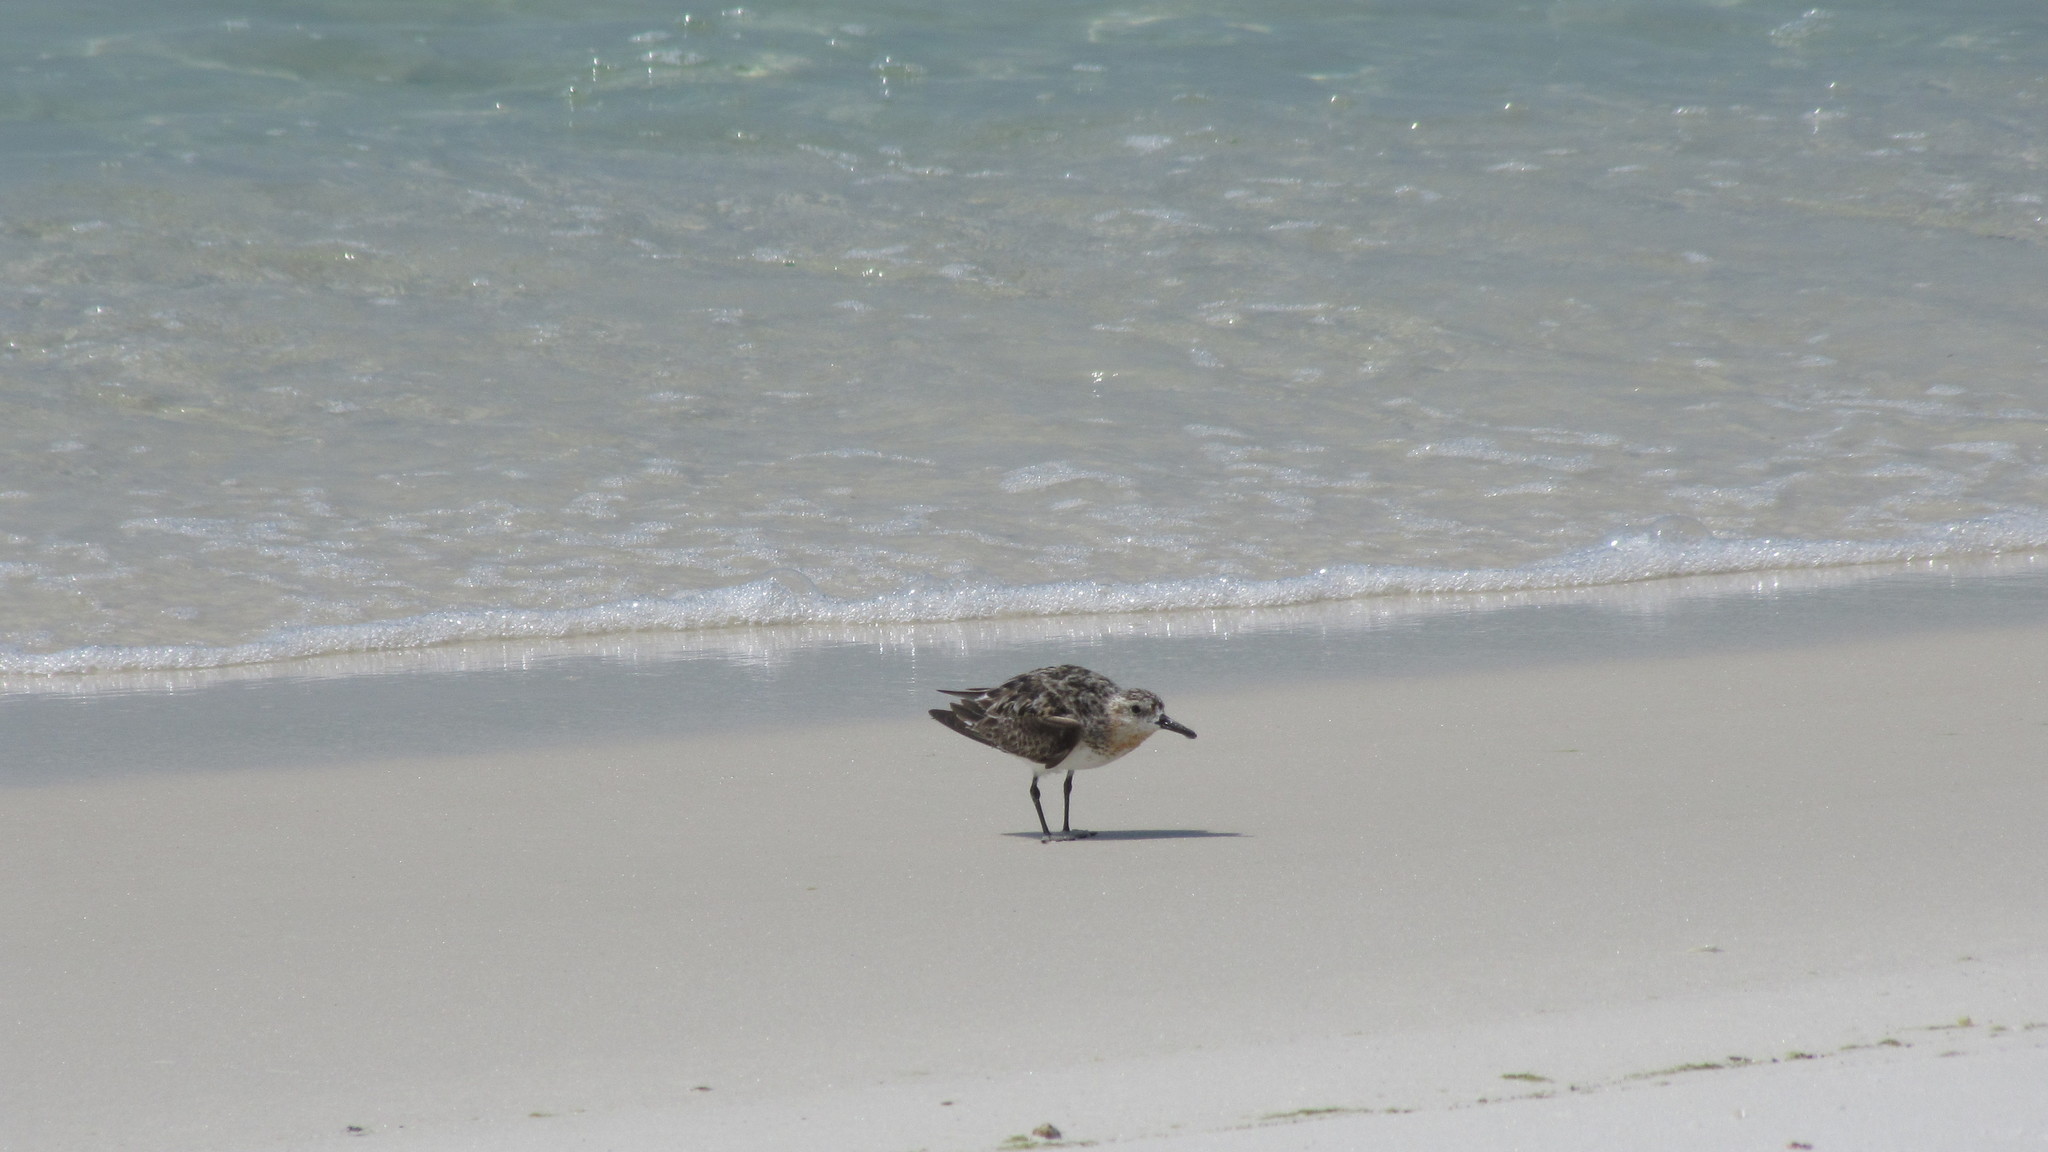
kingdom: Animalia
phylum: Chordata
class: Aves
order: Charadriiformes
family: Scolopacidae
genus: Calidris
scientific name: Calidris alba
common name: Sanderling
